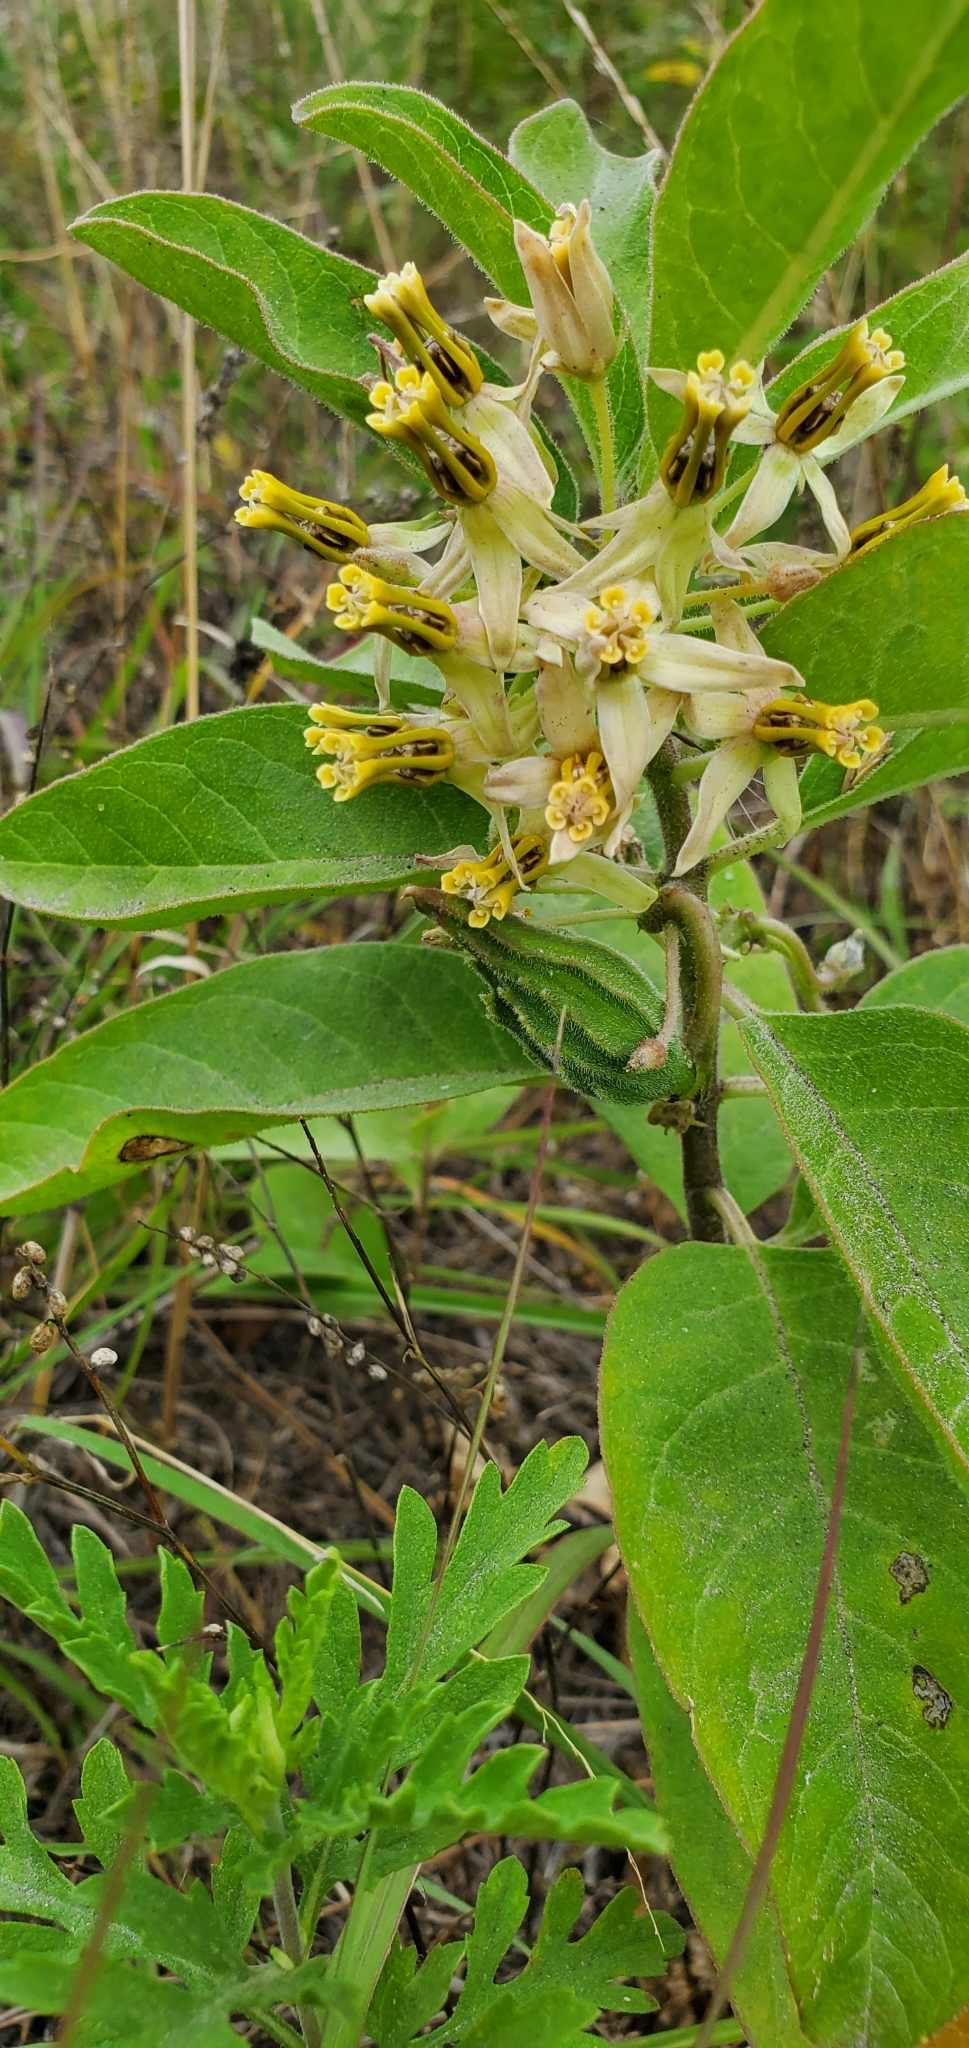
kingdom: Plantae
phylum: Tracheophyta
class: Magnoliopsida
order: Gentianales
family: Apocynaceae
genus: Asclepias
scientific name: Asclepias oenotheroides
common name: Zizotes milkweed
